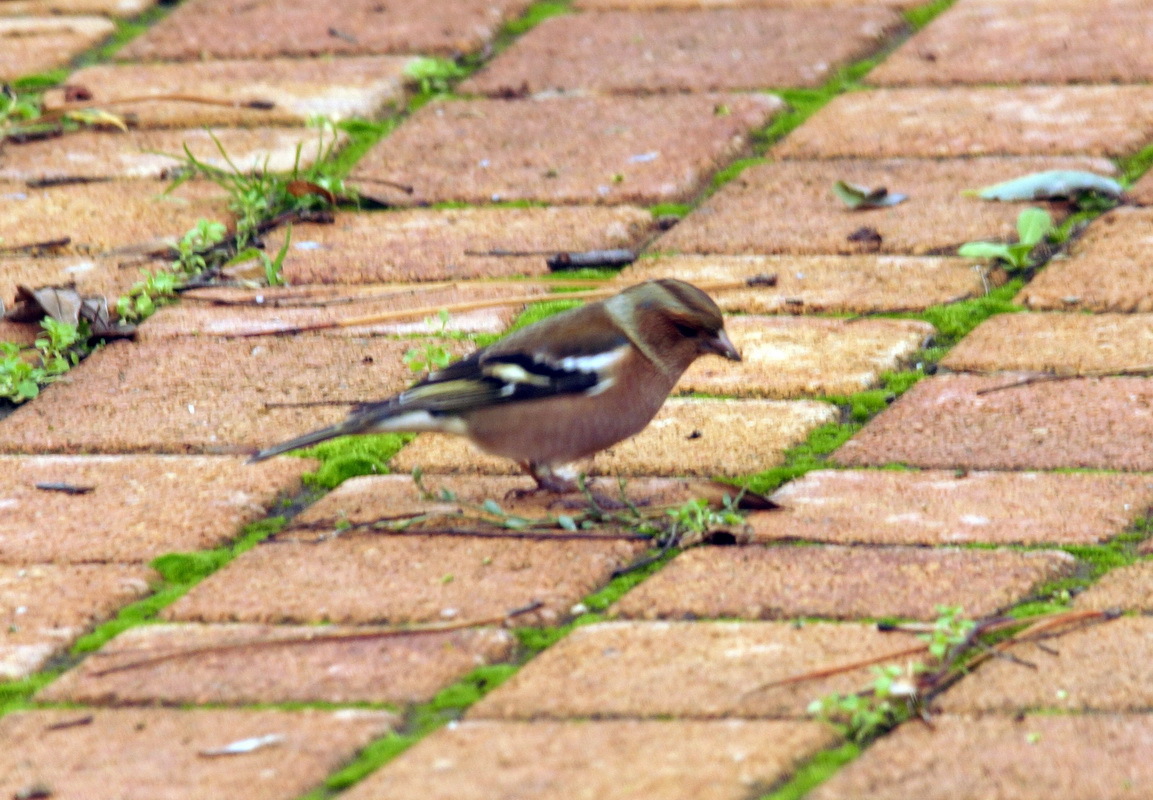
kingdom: Animalia
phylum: Chordata
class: Aves
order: Passeriformes
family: Fringillidae
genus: Fringilla
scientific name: Fringilla coelebs
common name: Common chaffinch
